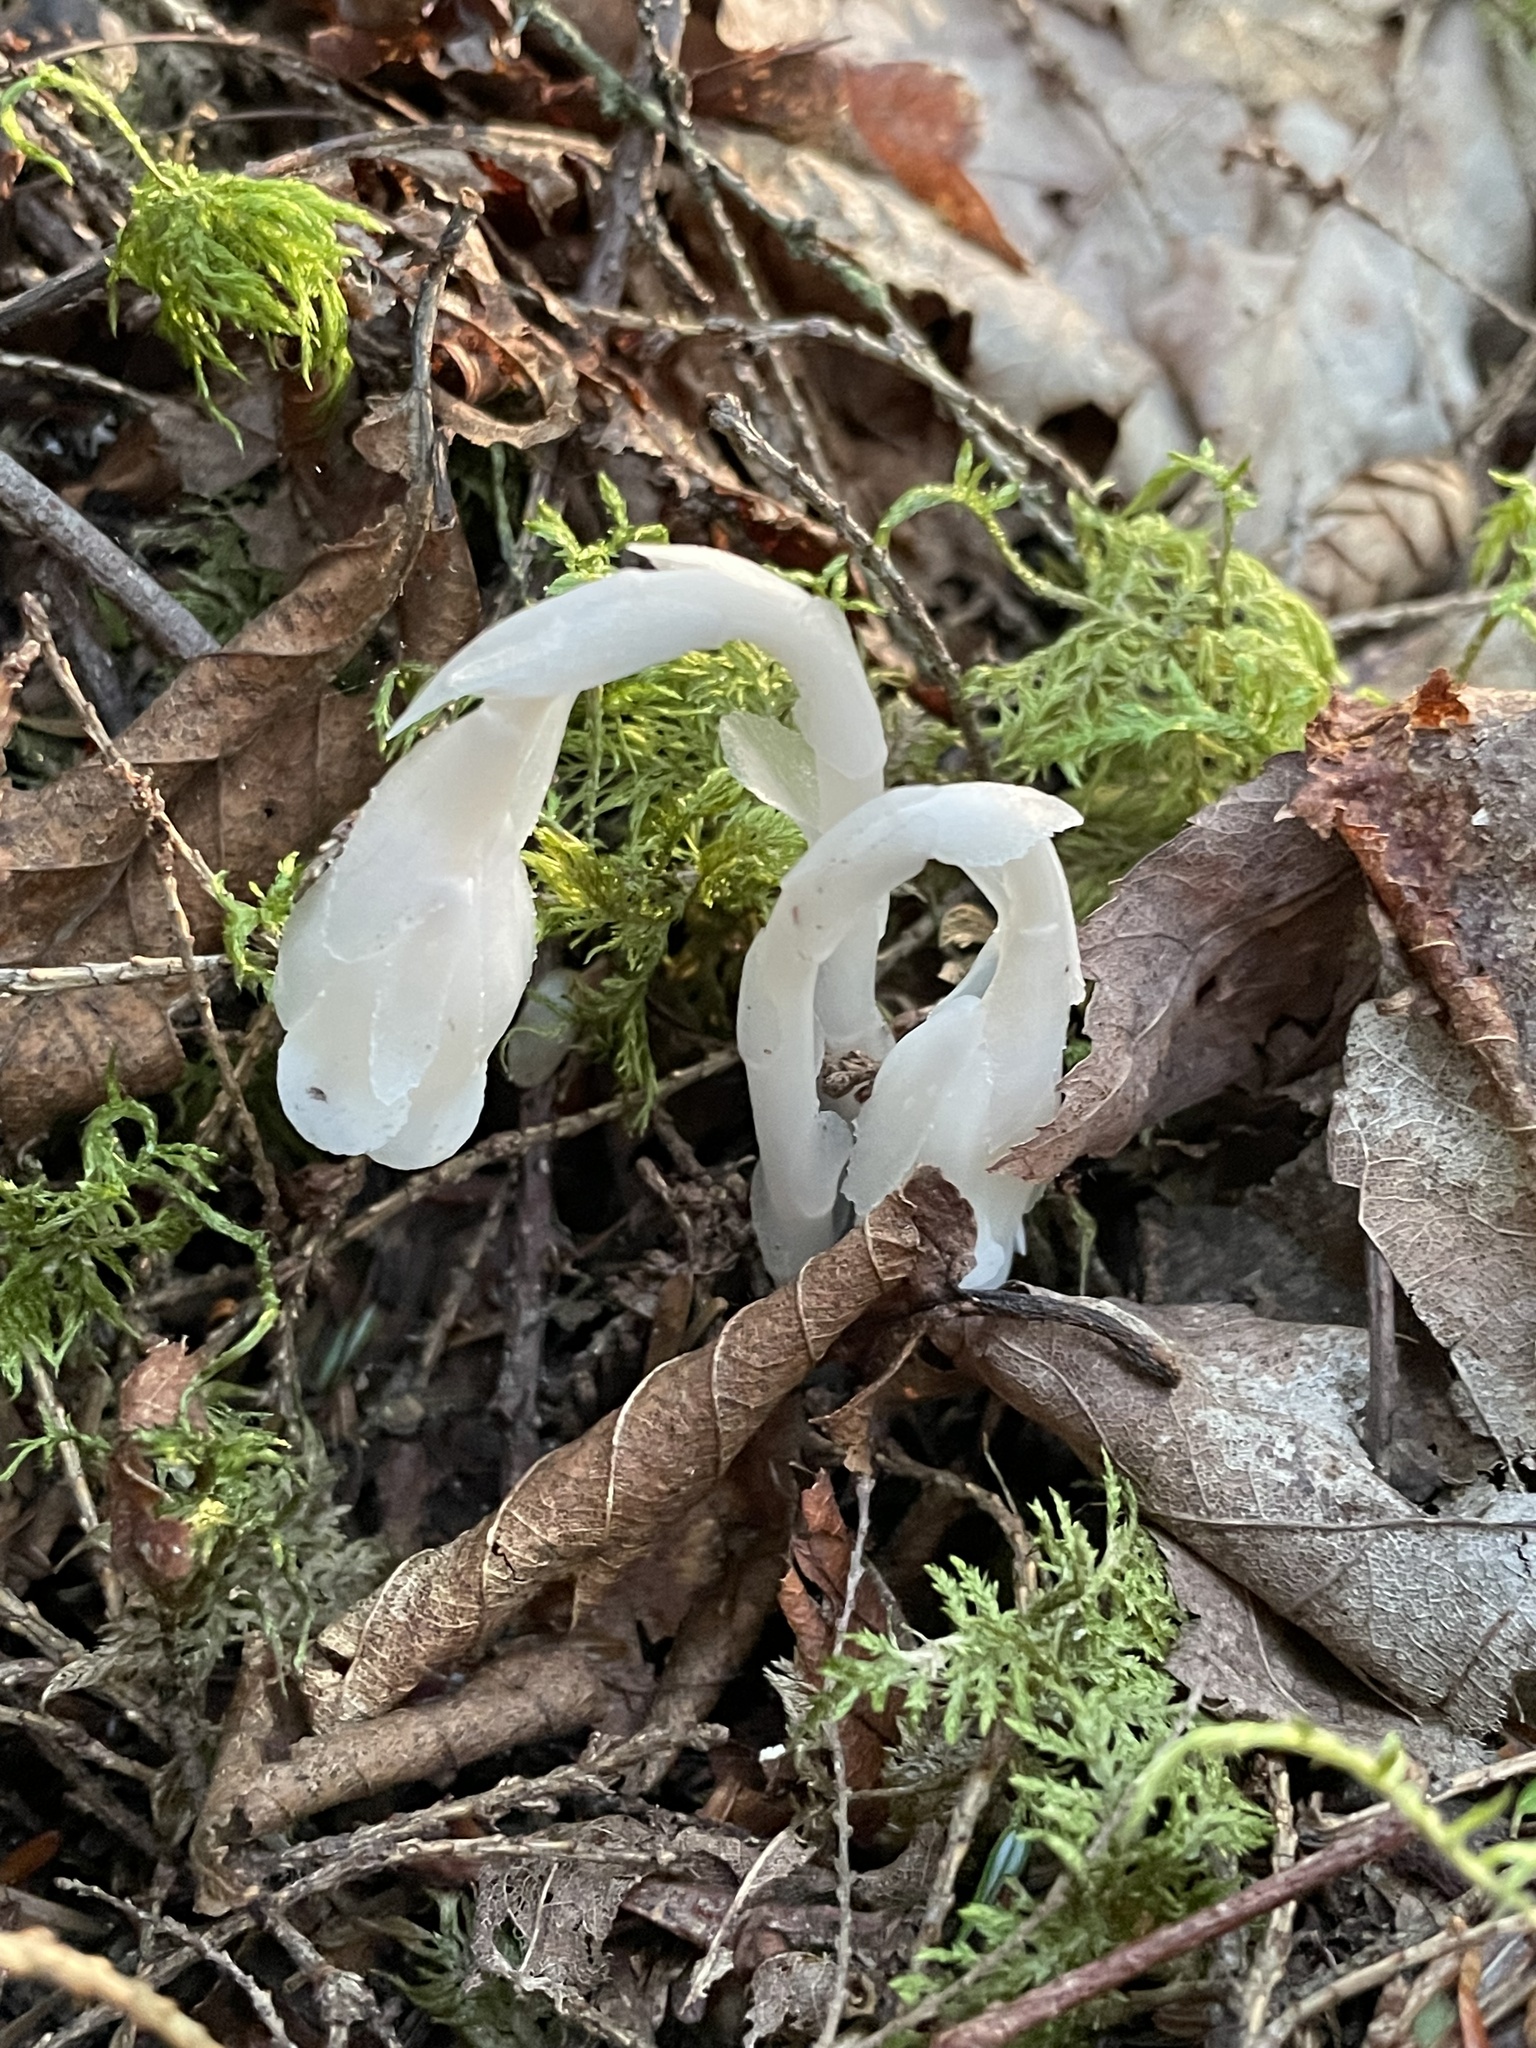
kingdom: Plantae
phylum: Tracheophyta
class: Magnoliopsida
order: Ericales
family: Ericaceae
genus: Monotropa
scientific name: Monotropa uniflora
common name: Convulsion root
